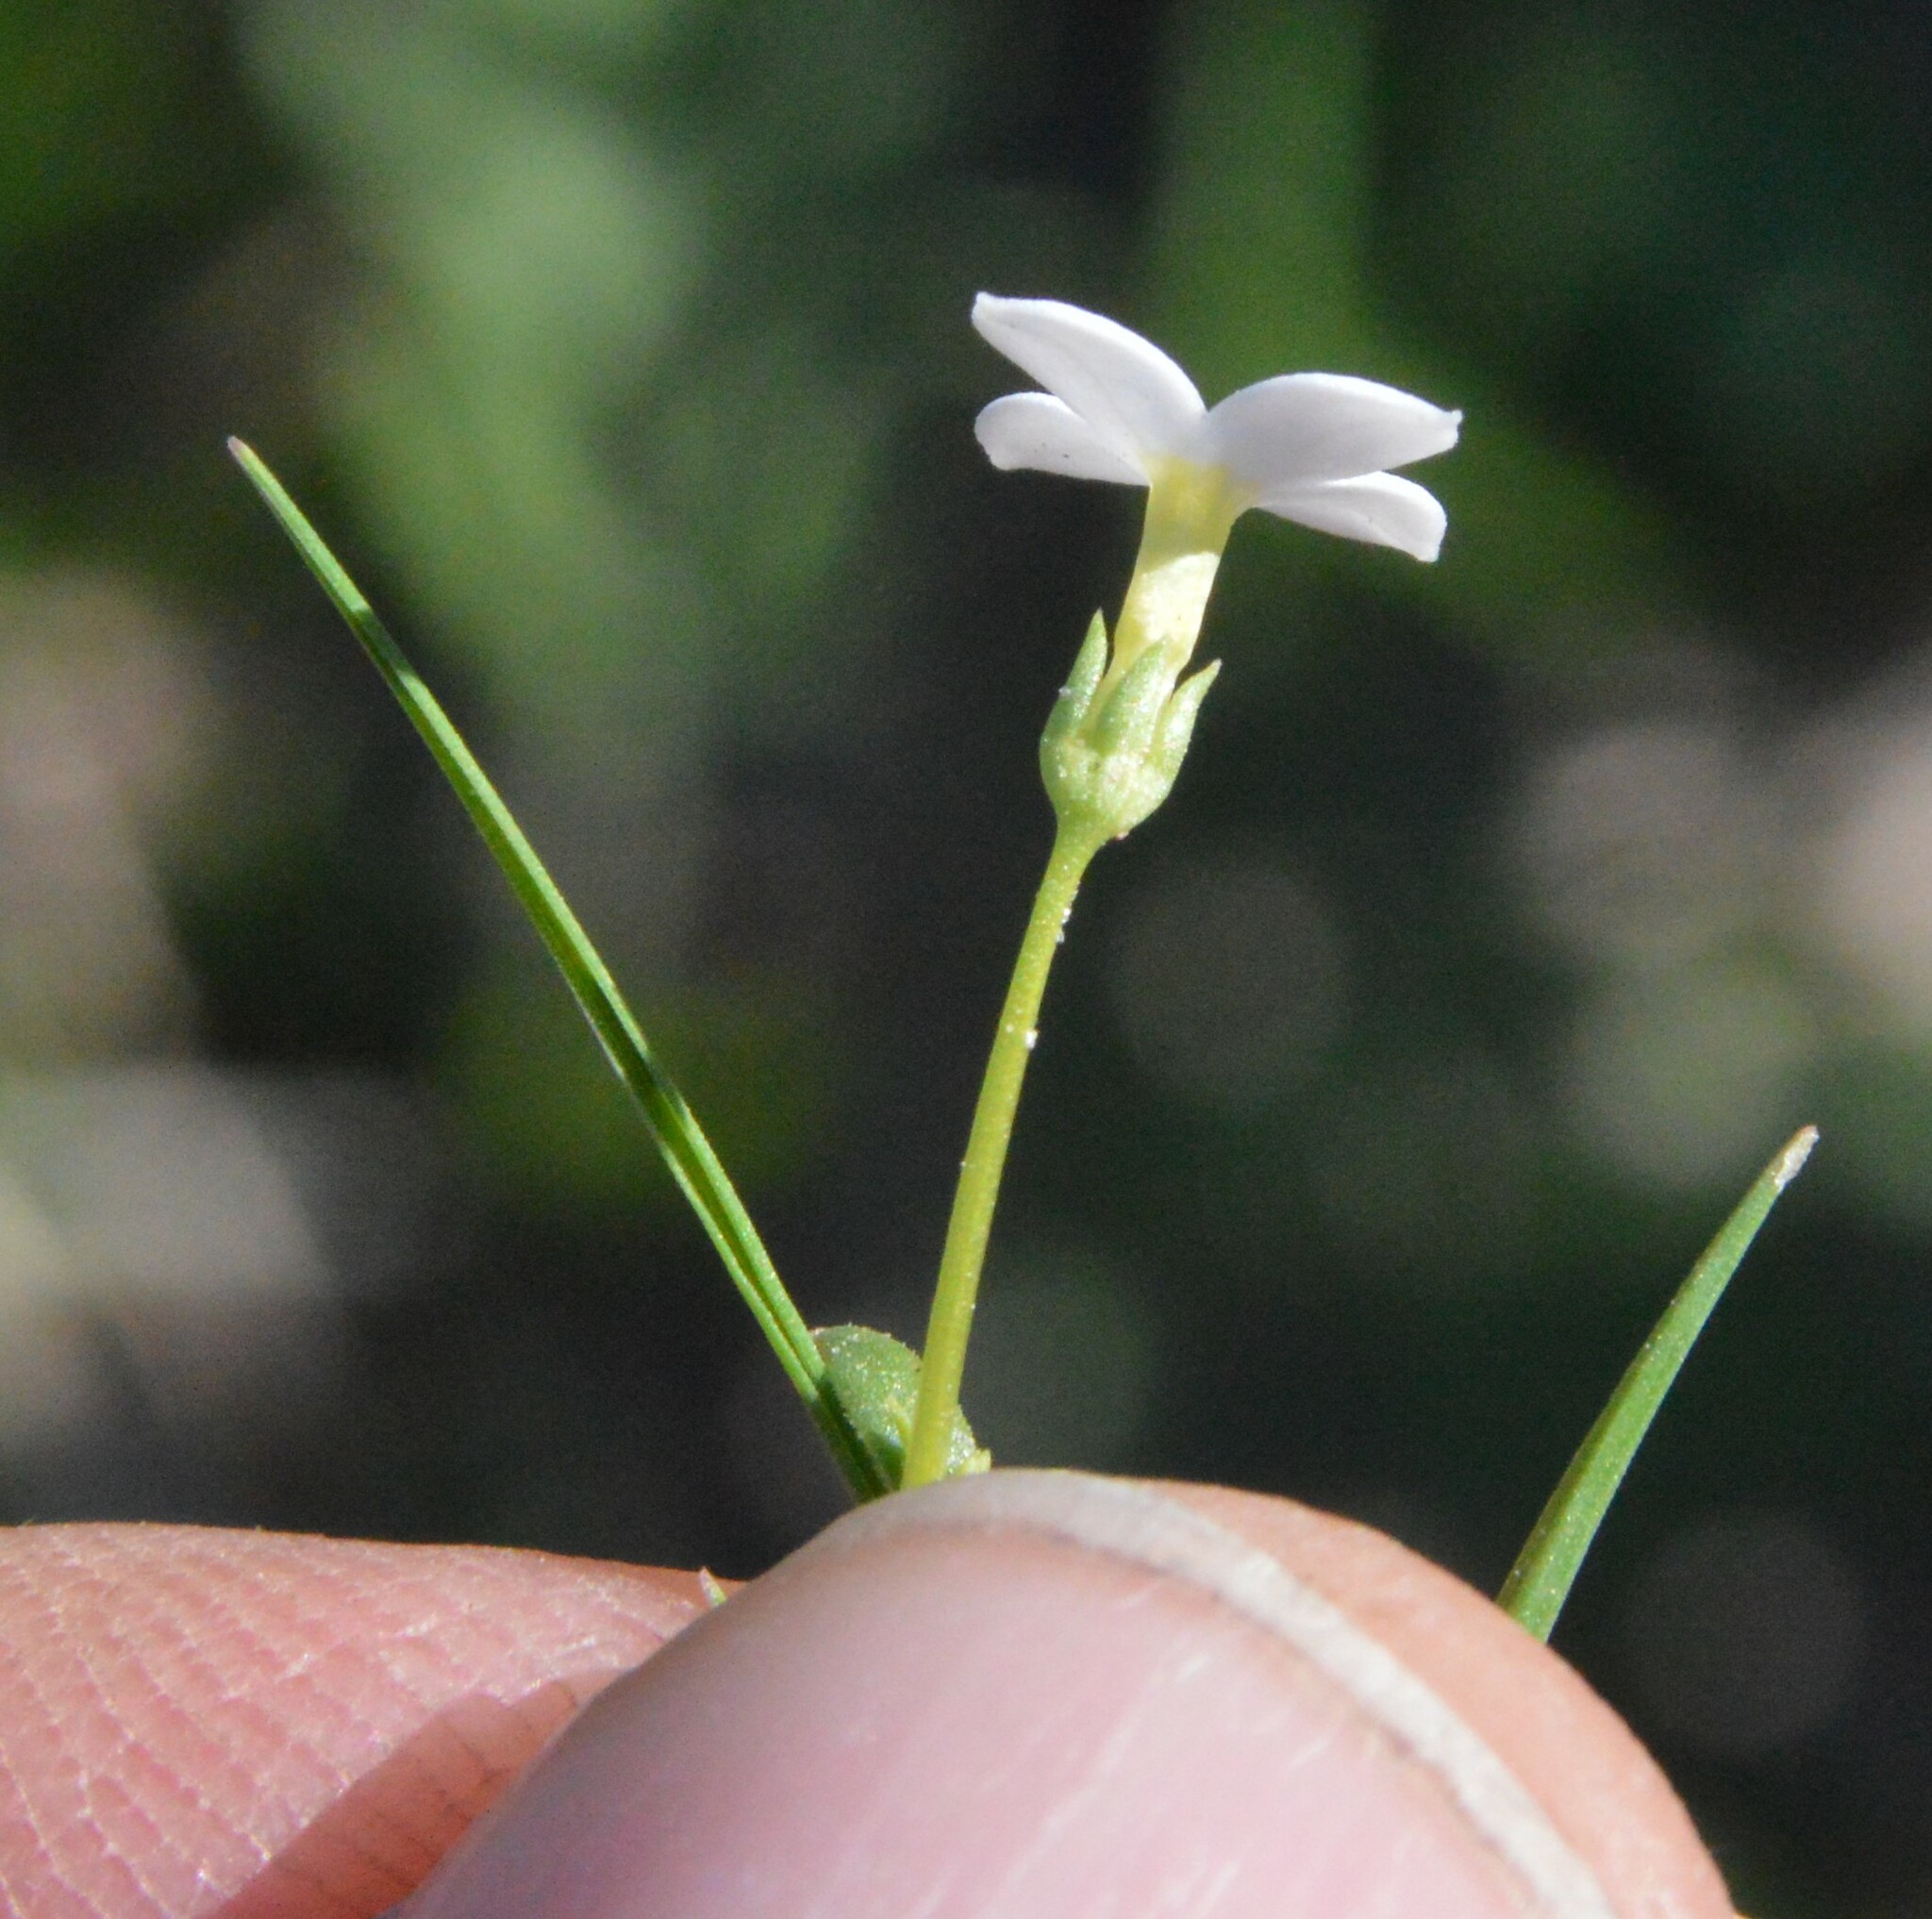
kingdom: Plantae
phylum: Tracheophyta
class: Magnoliopsida
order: Gentianales
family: Rubiaceae
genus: Houstonia
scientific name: Houstonia pusilla
